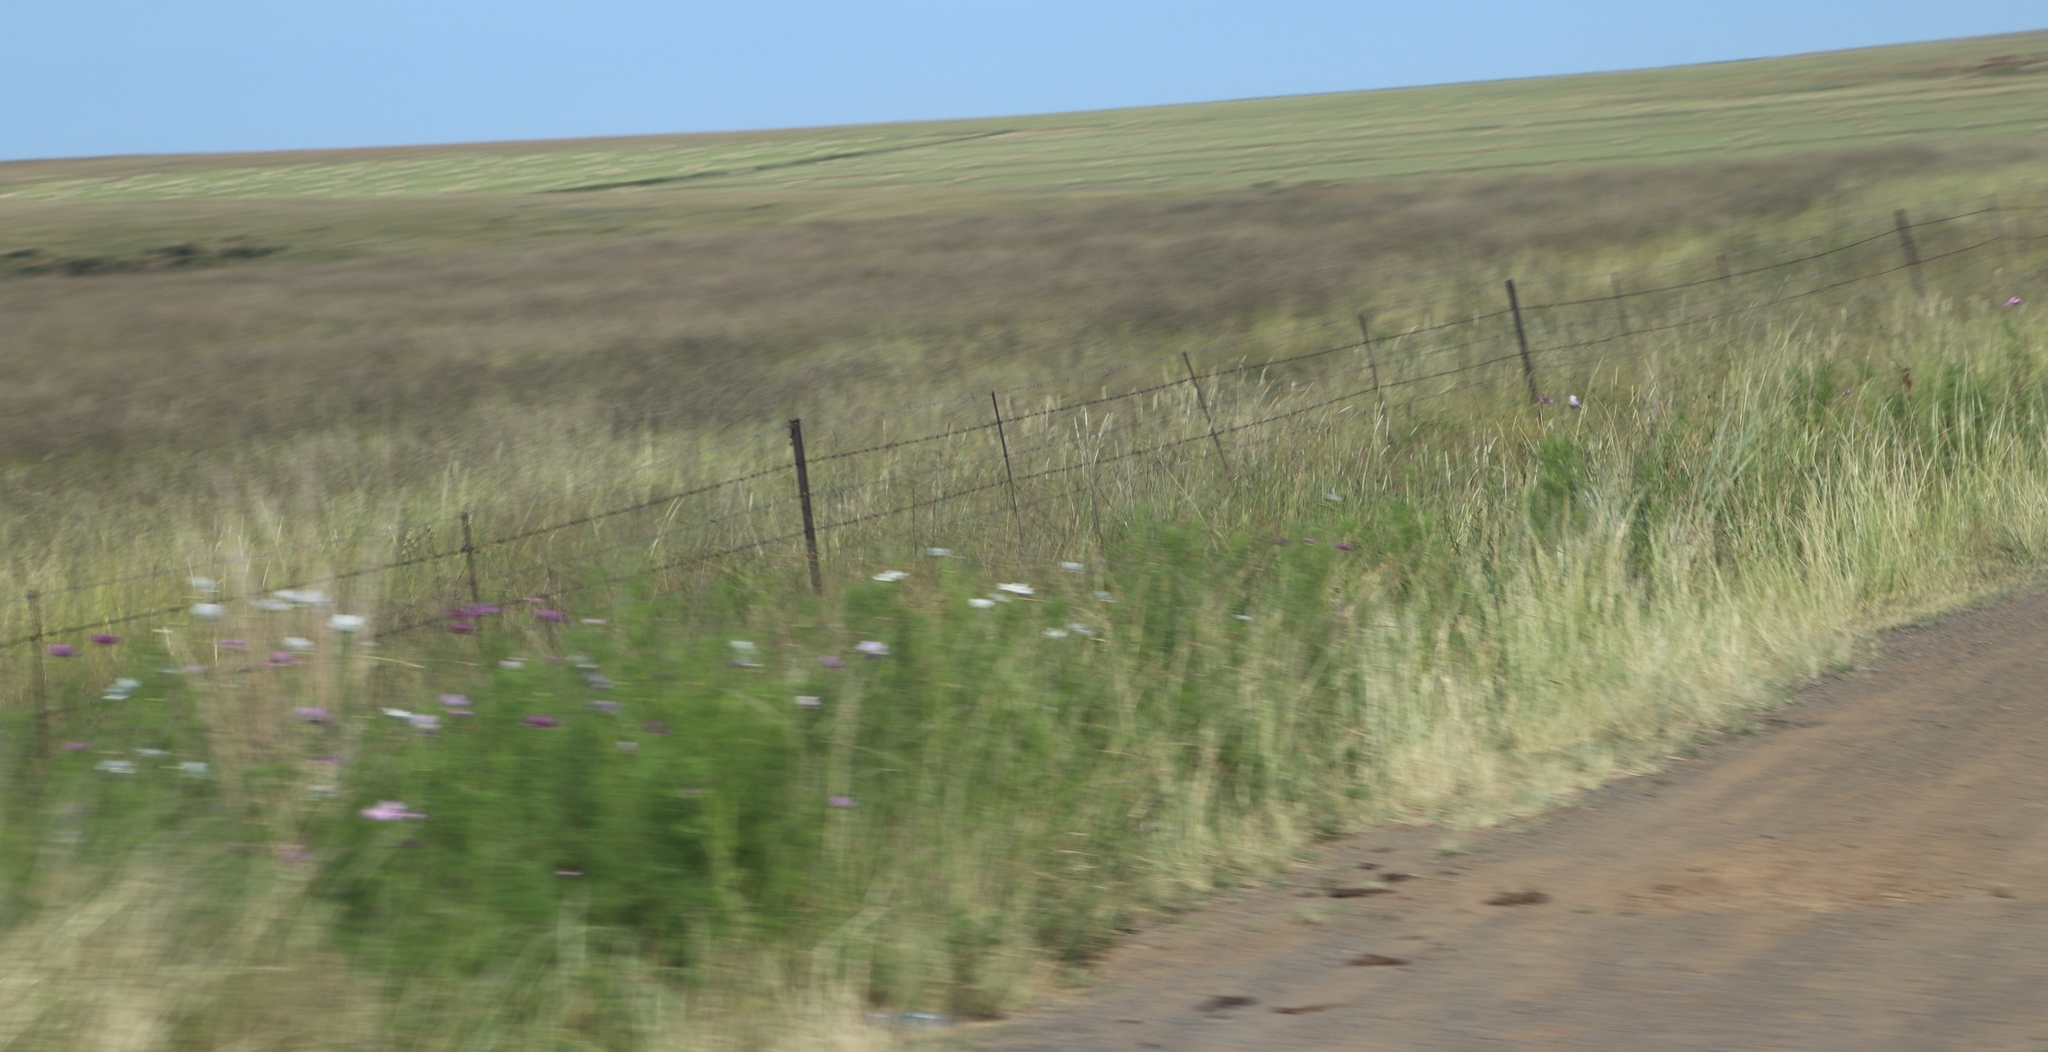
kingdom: Plantae
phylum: Tracheophyta
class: Magnoliopsida
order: Asterales
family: Asteraceae
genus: Cosmos
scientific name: Cosmos bipinnatus
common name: Garden cosmos
